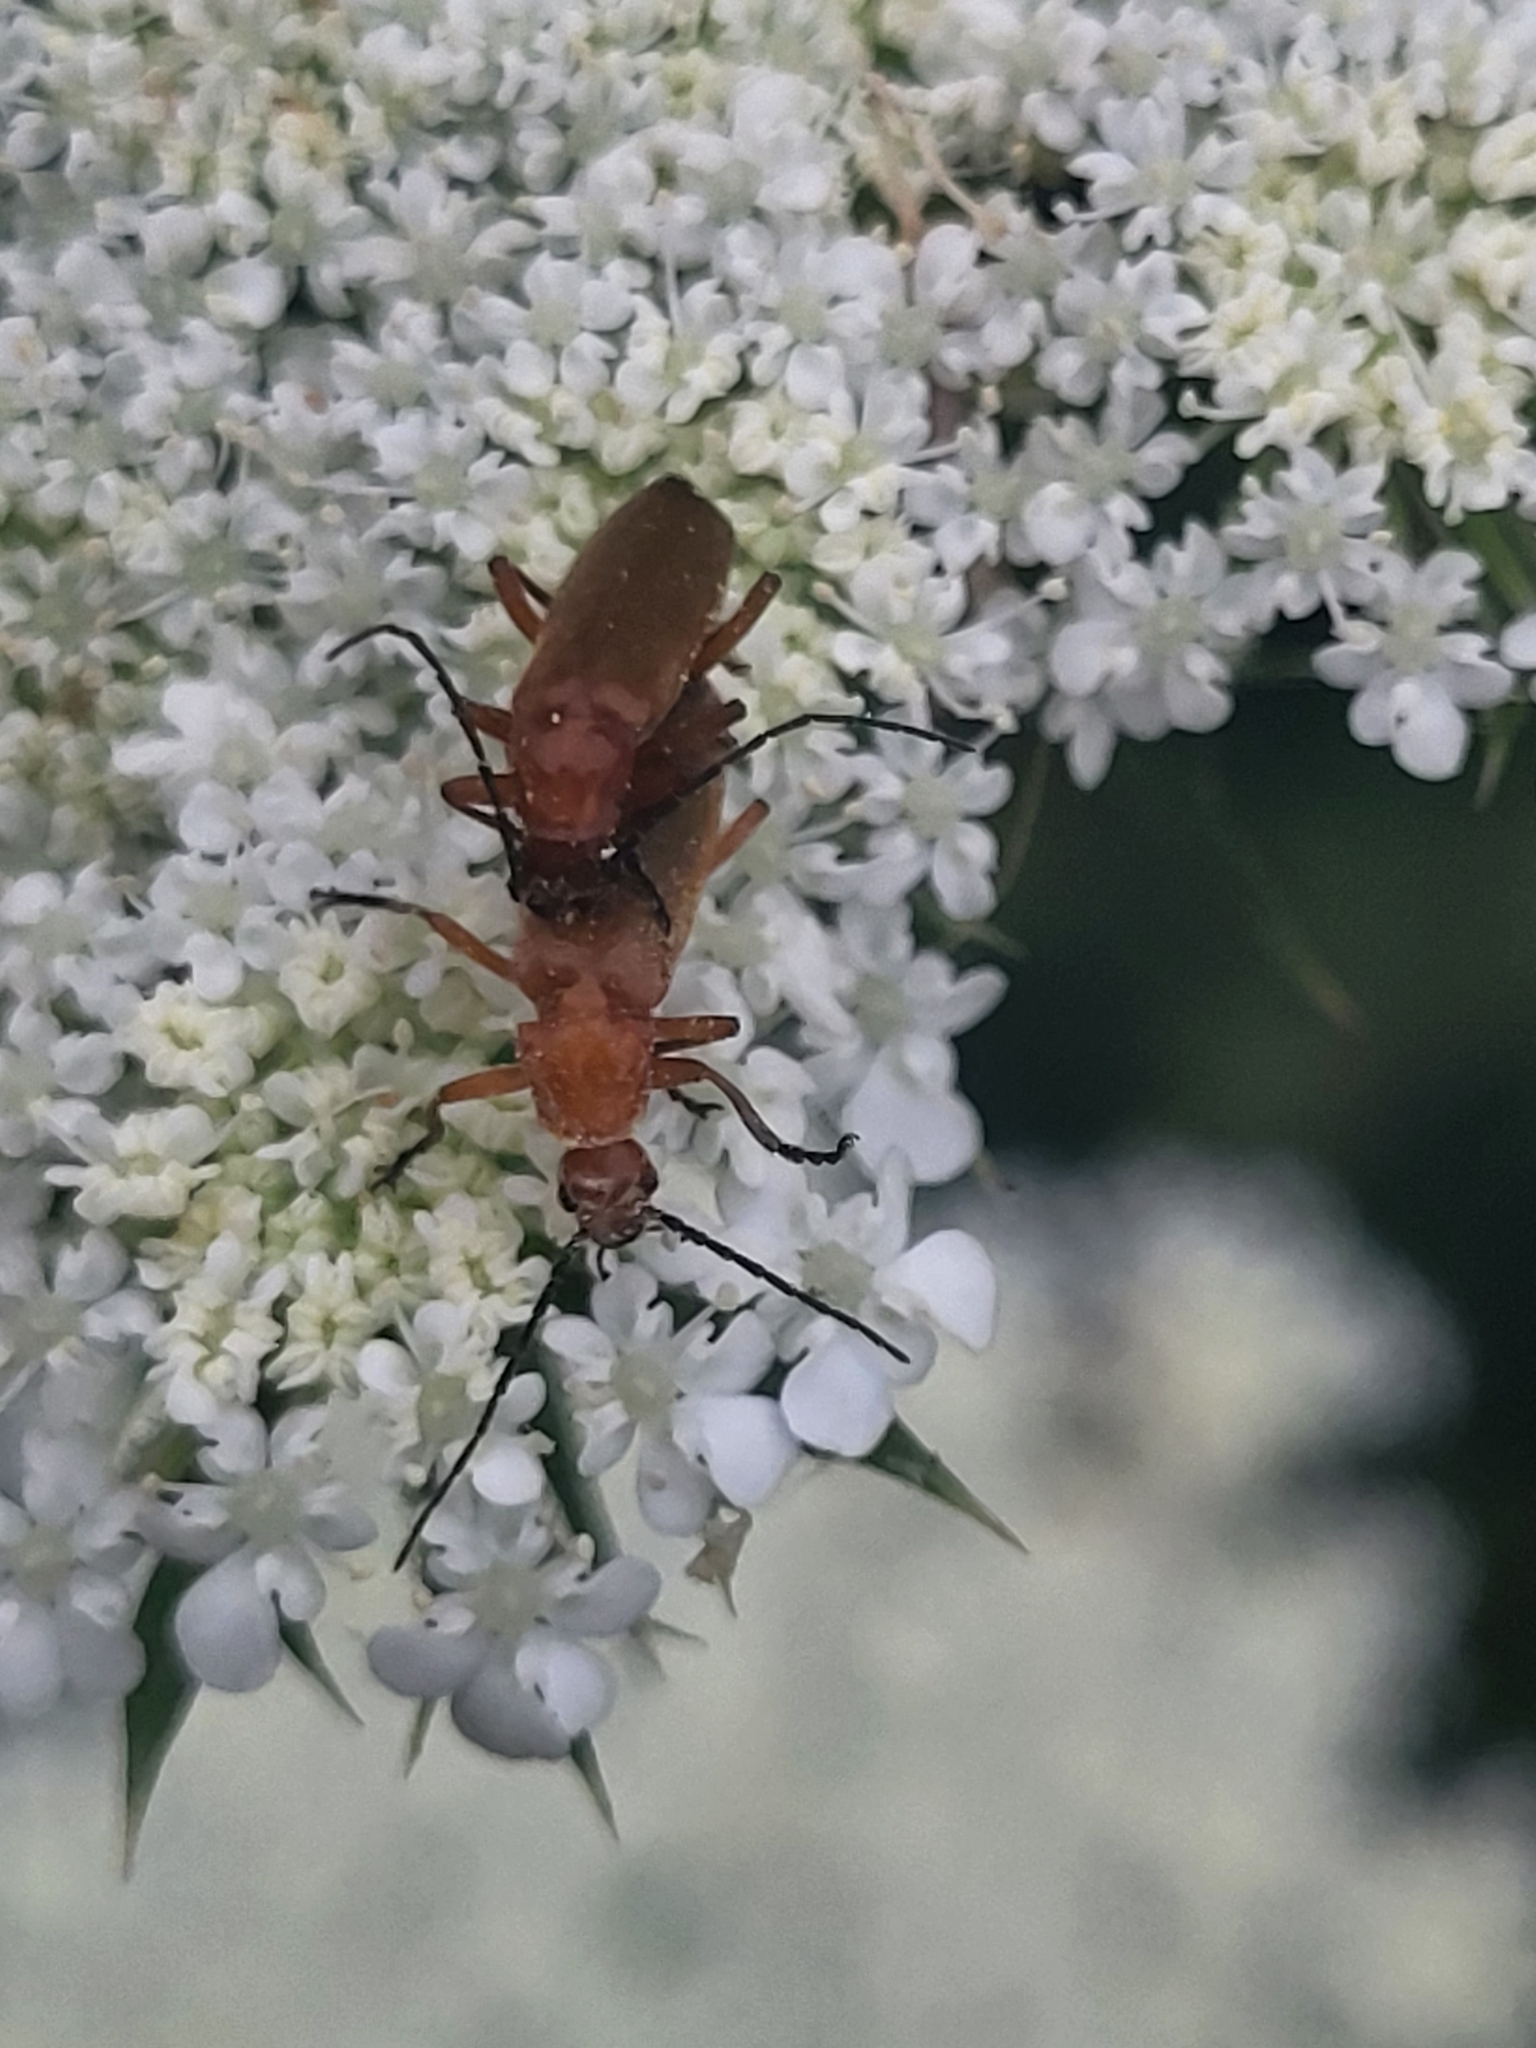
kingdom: Animalia
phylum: Arthropoda
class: Insecta
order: Coleoptera
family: Cantharidae
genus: Rhagonycha
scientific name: Rhagonycha fulva
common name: Common red soldier beetle
